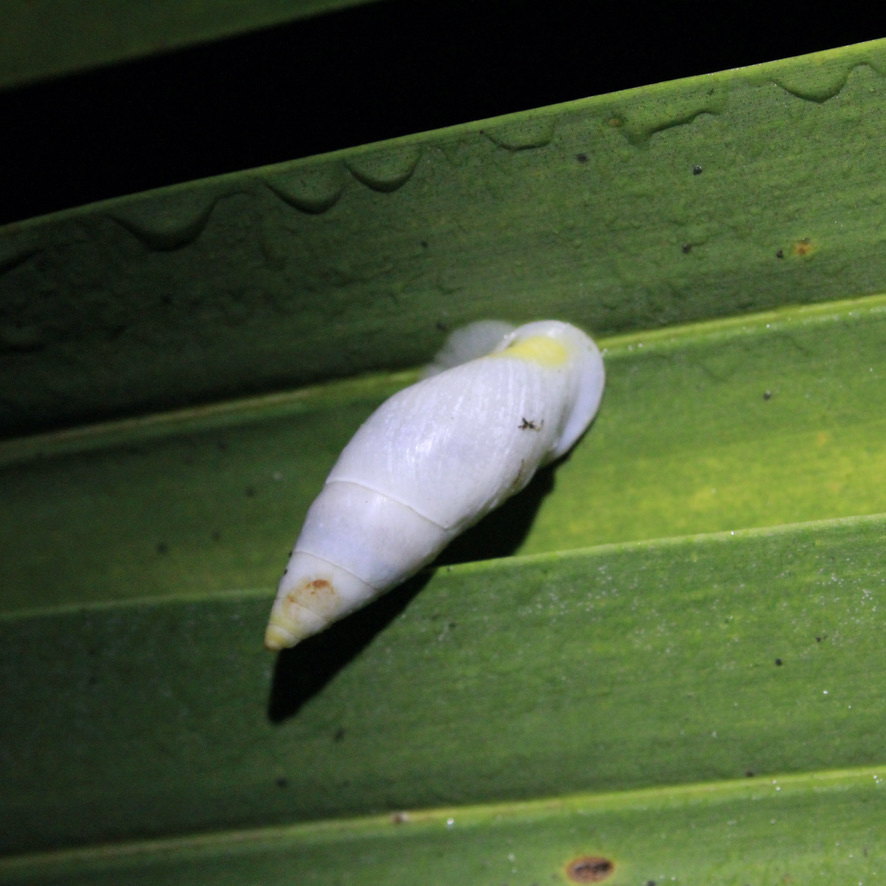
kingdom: Animalia
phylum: Mollusca
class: Gastropoda
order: Stylommatophora
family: Bulimulidae
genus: Drymaeus
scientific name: Drymaeus
